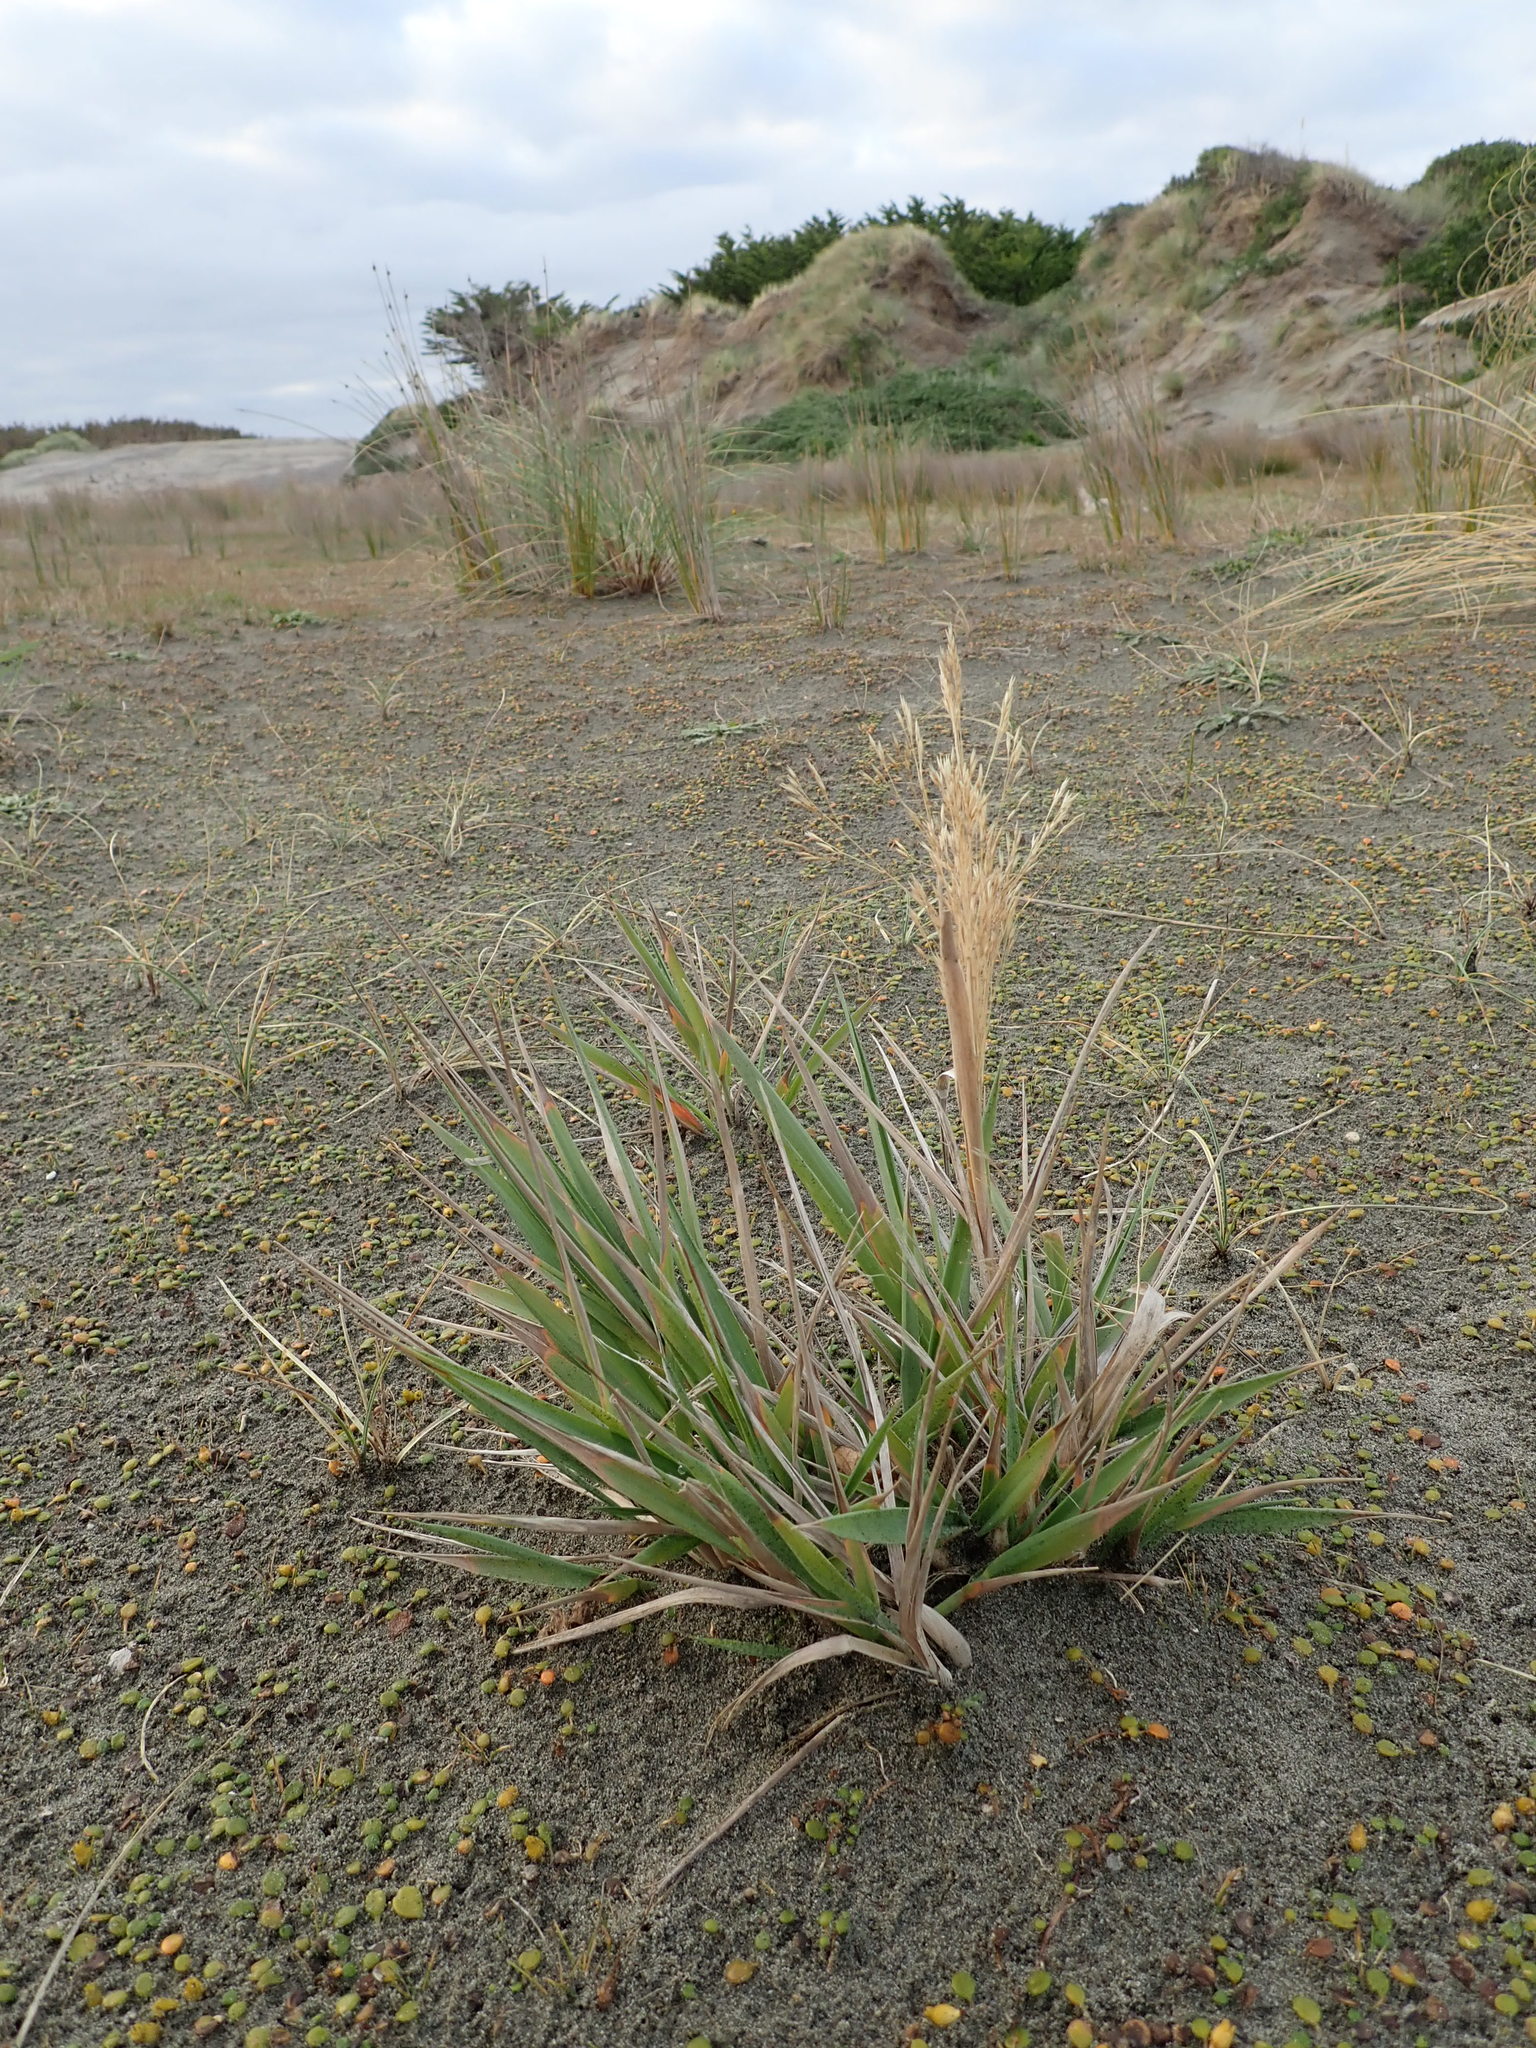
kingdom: Plantae
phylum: Tracheophyta
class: Liliopsida
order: Poales
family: Poaceae
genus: Lachnagrostis
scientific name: Lachnagrostis billardierei
